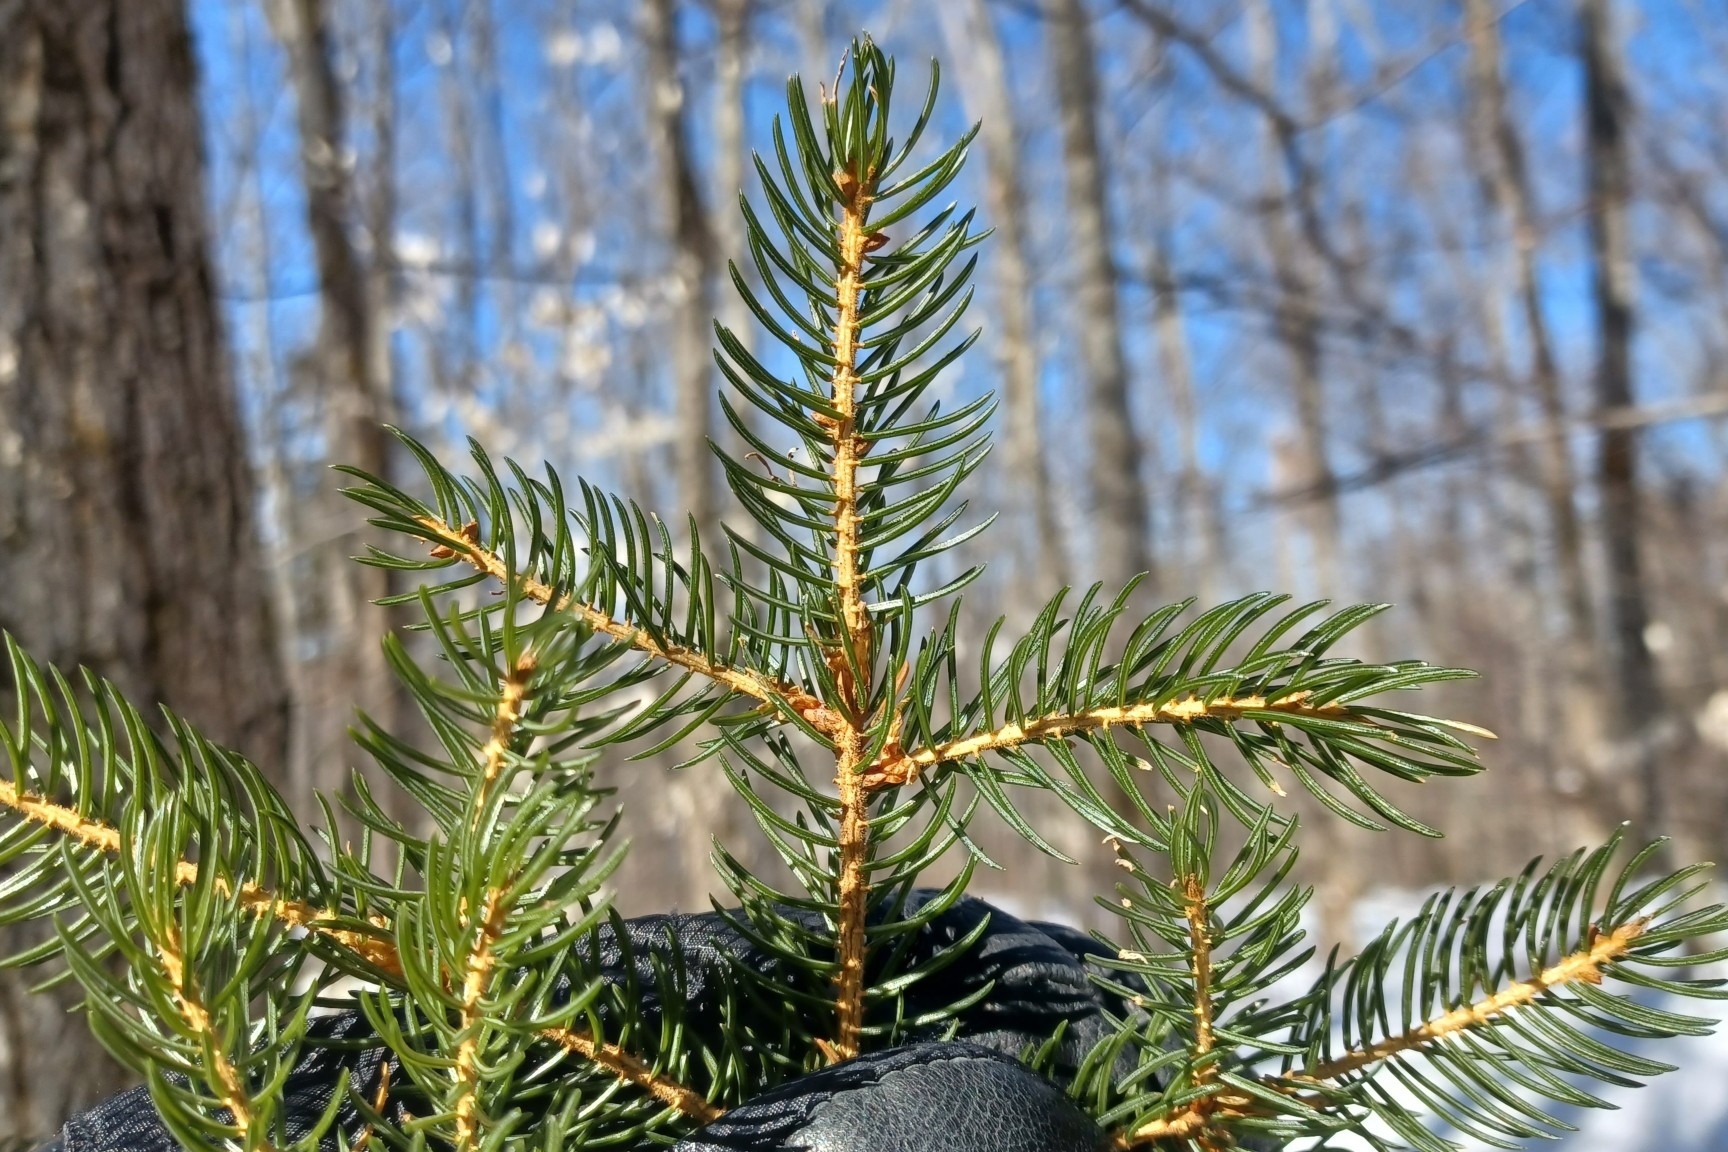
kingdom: Plantae
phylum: Tracheophyta
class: Pinopsida
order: Pinales
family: Pinaceae
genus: Picea
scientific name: Picea rubens
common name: Red spruce
